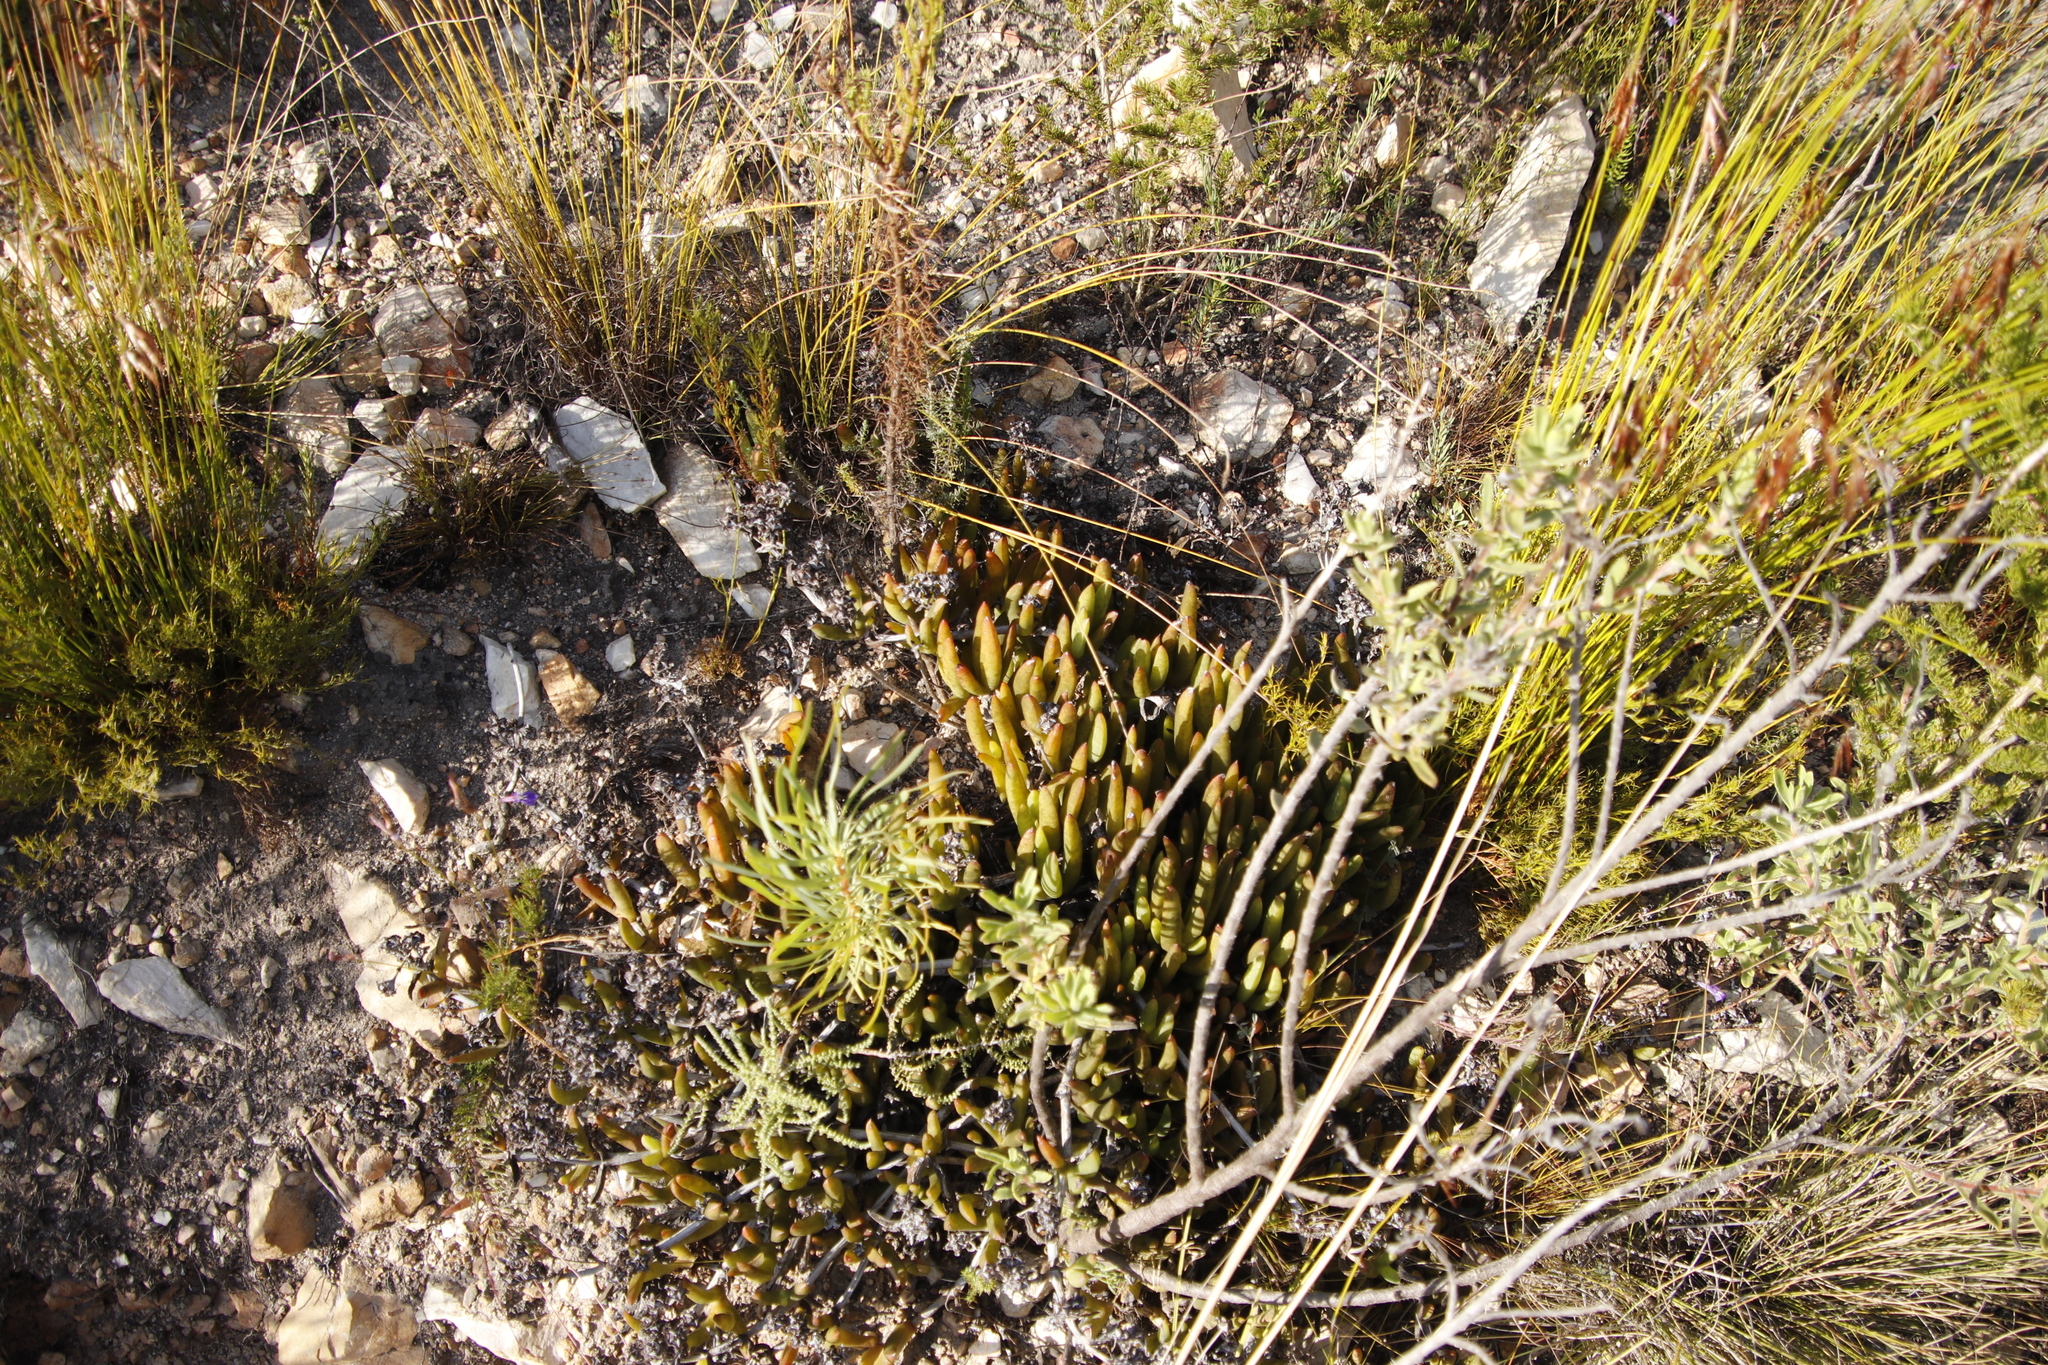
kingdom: Plantae
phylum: Tracheophyta
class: Magnoliopsida
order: Proteales
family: Proteaceae
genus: Protea
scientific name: Protea repens
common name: Sugarbush
